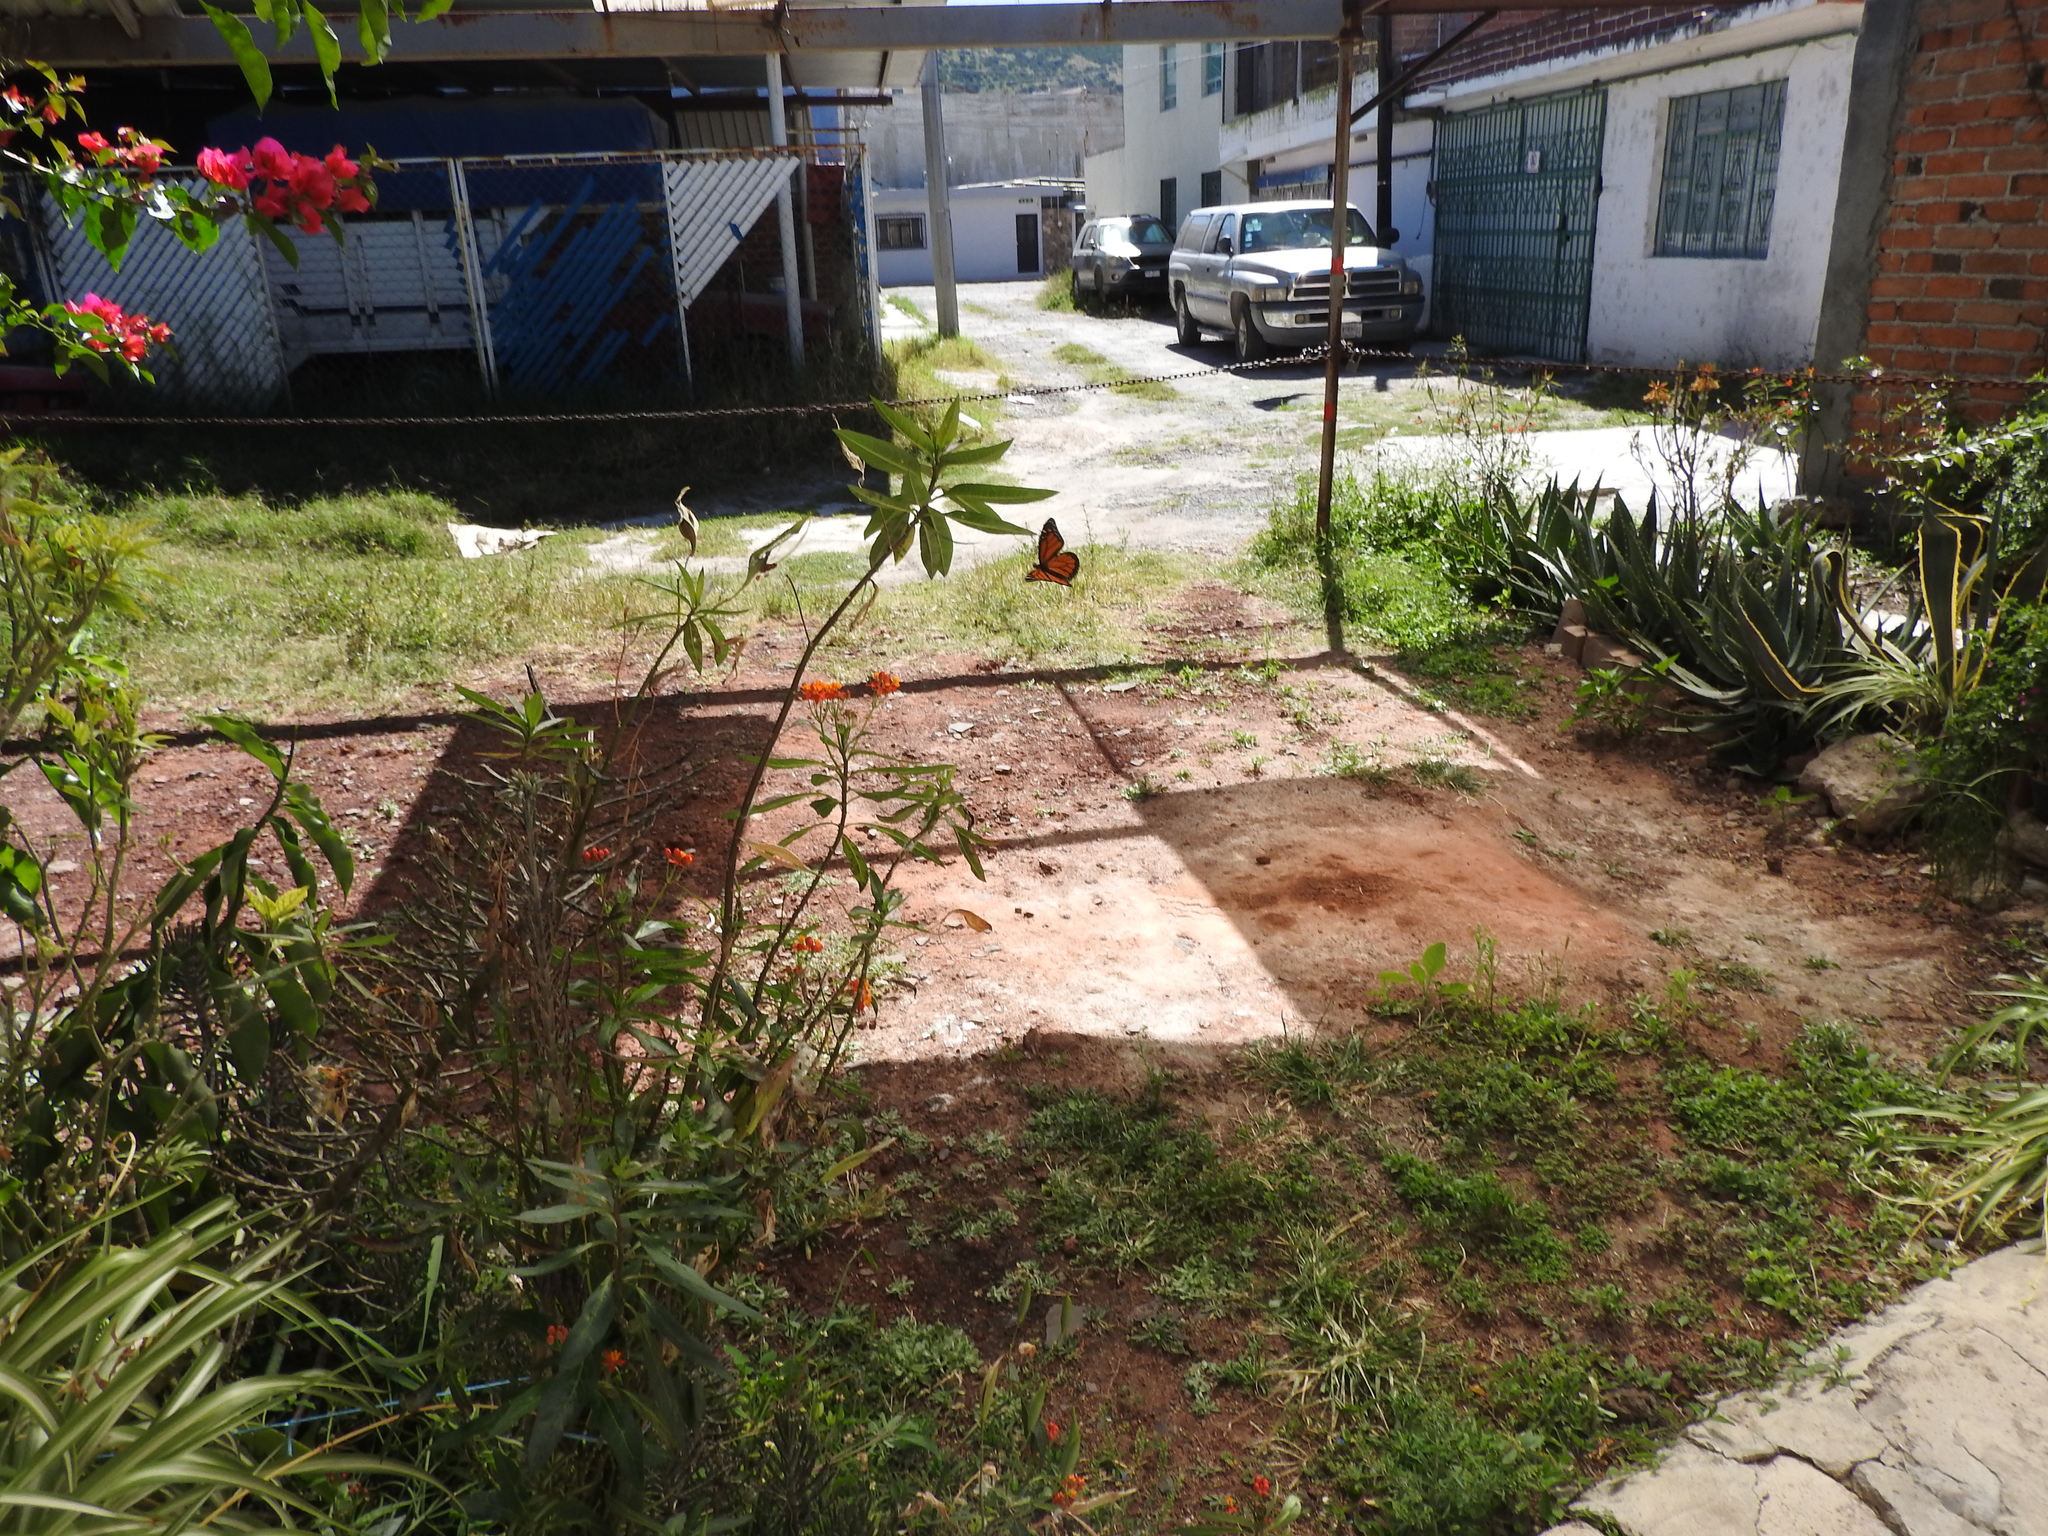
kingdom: Animalia
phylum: Arthropoda
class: Insecta
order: Lepidoptera
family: Nymphalidae
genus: Danaus
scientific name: Danaus plexippus
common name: Monarch
